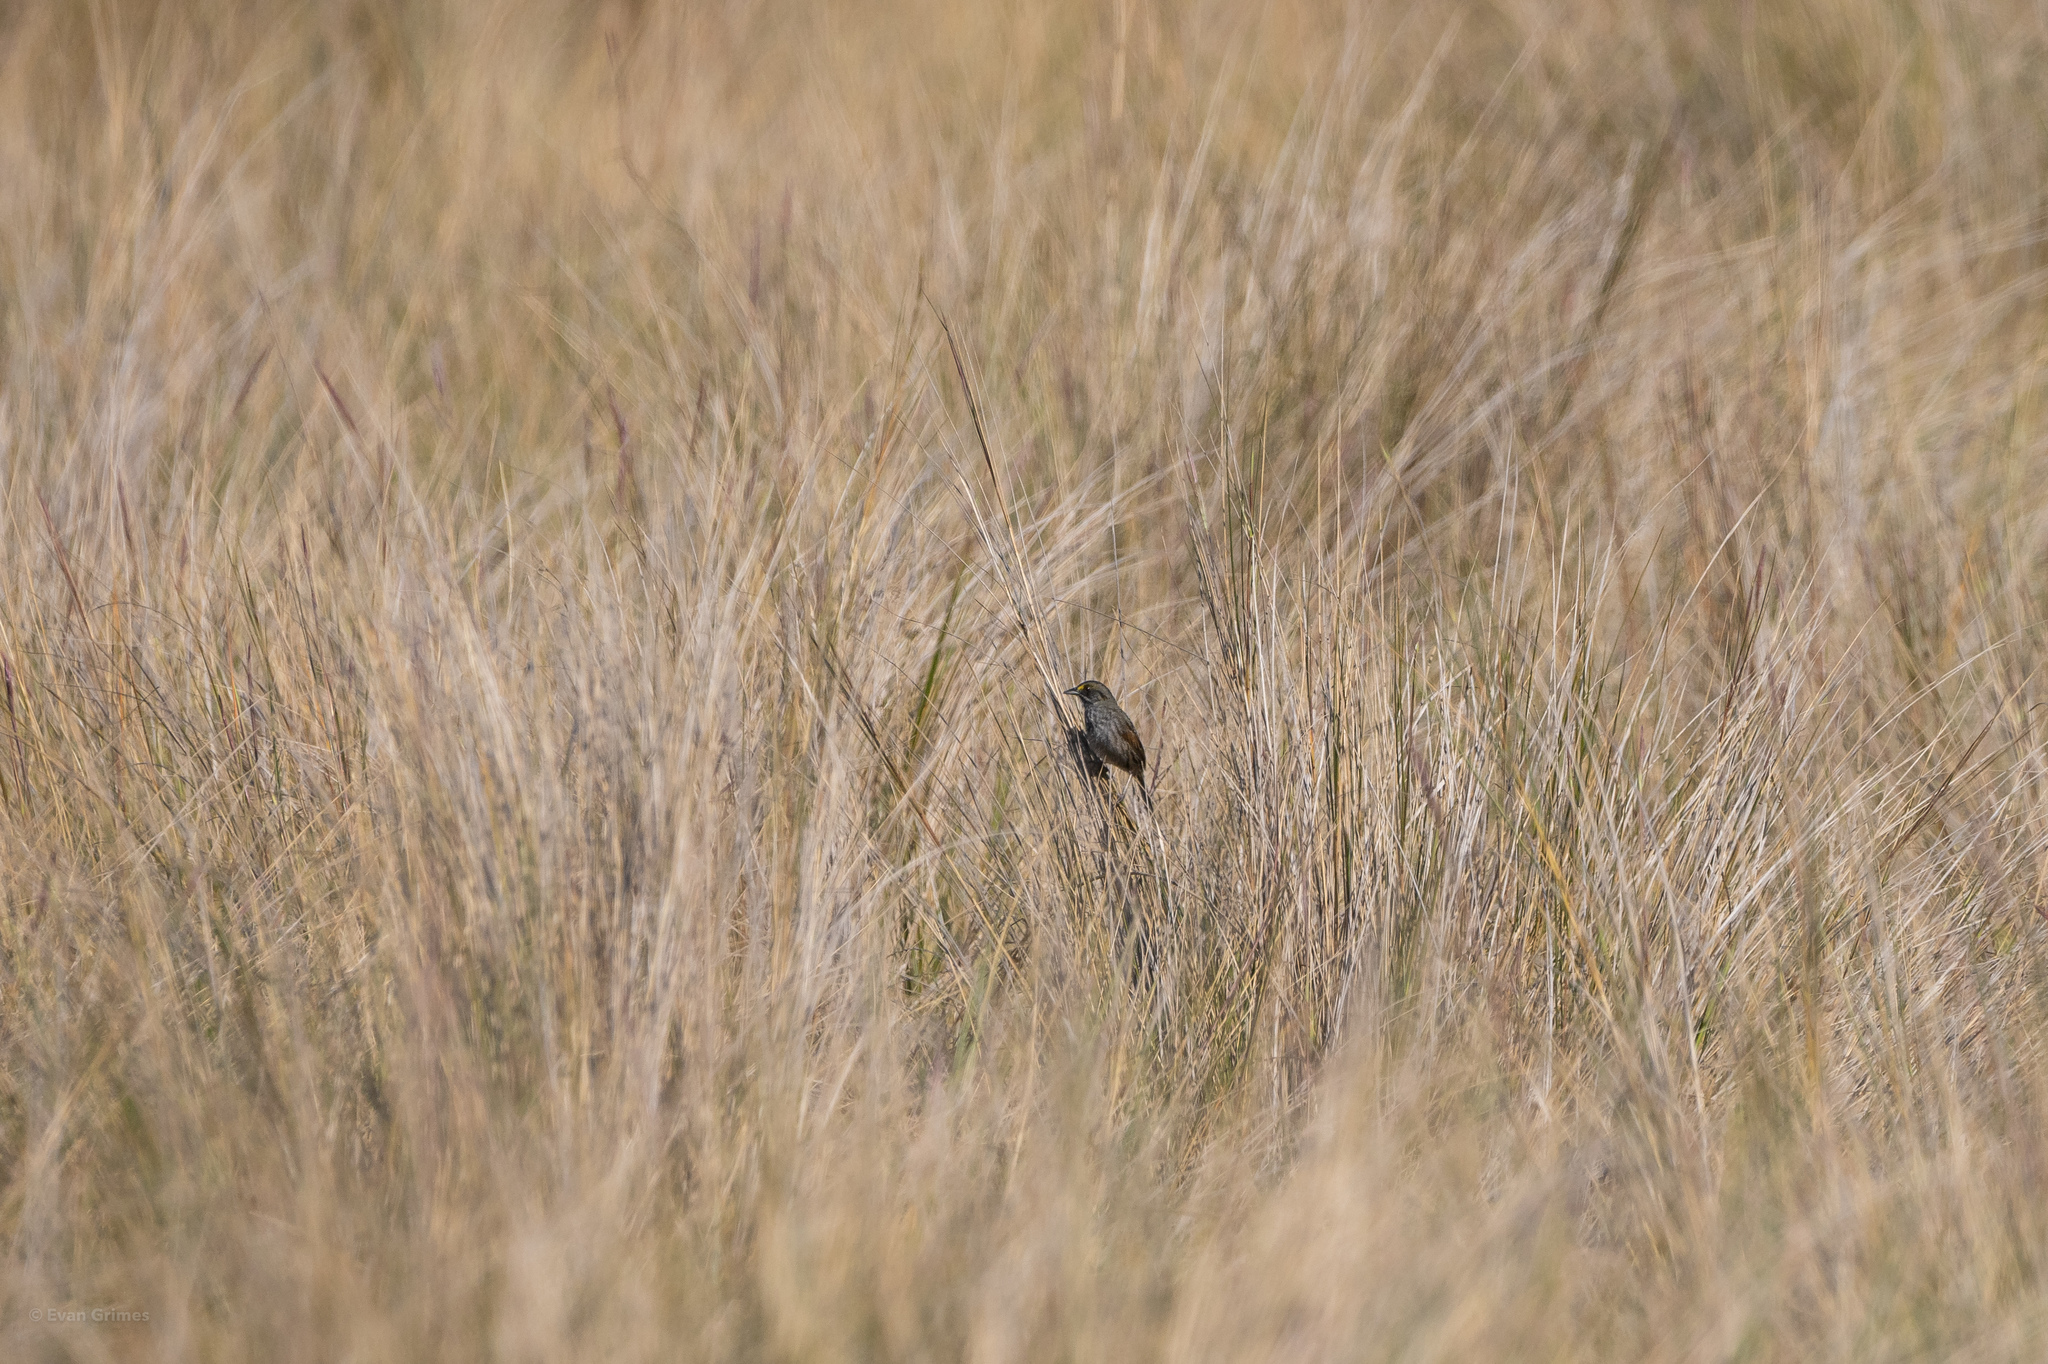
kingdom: Animalia
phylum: Chordata
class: Aves
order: Passeriformes
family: Passerellidae
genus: Ammospiza
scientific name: Ammospiza maritima
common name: Seaside sparrow
